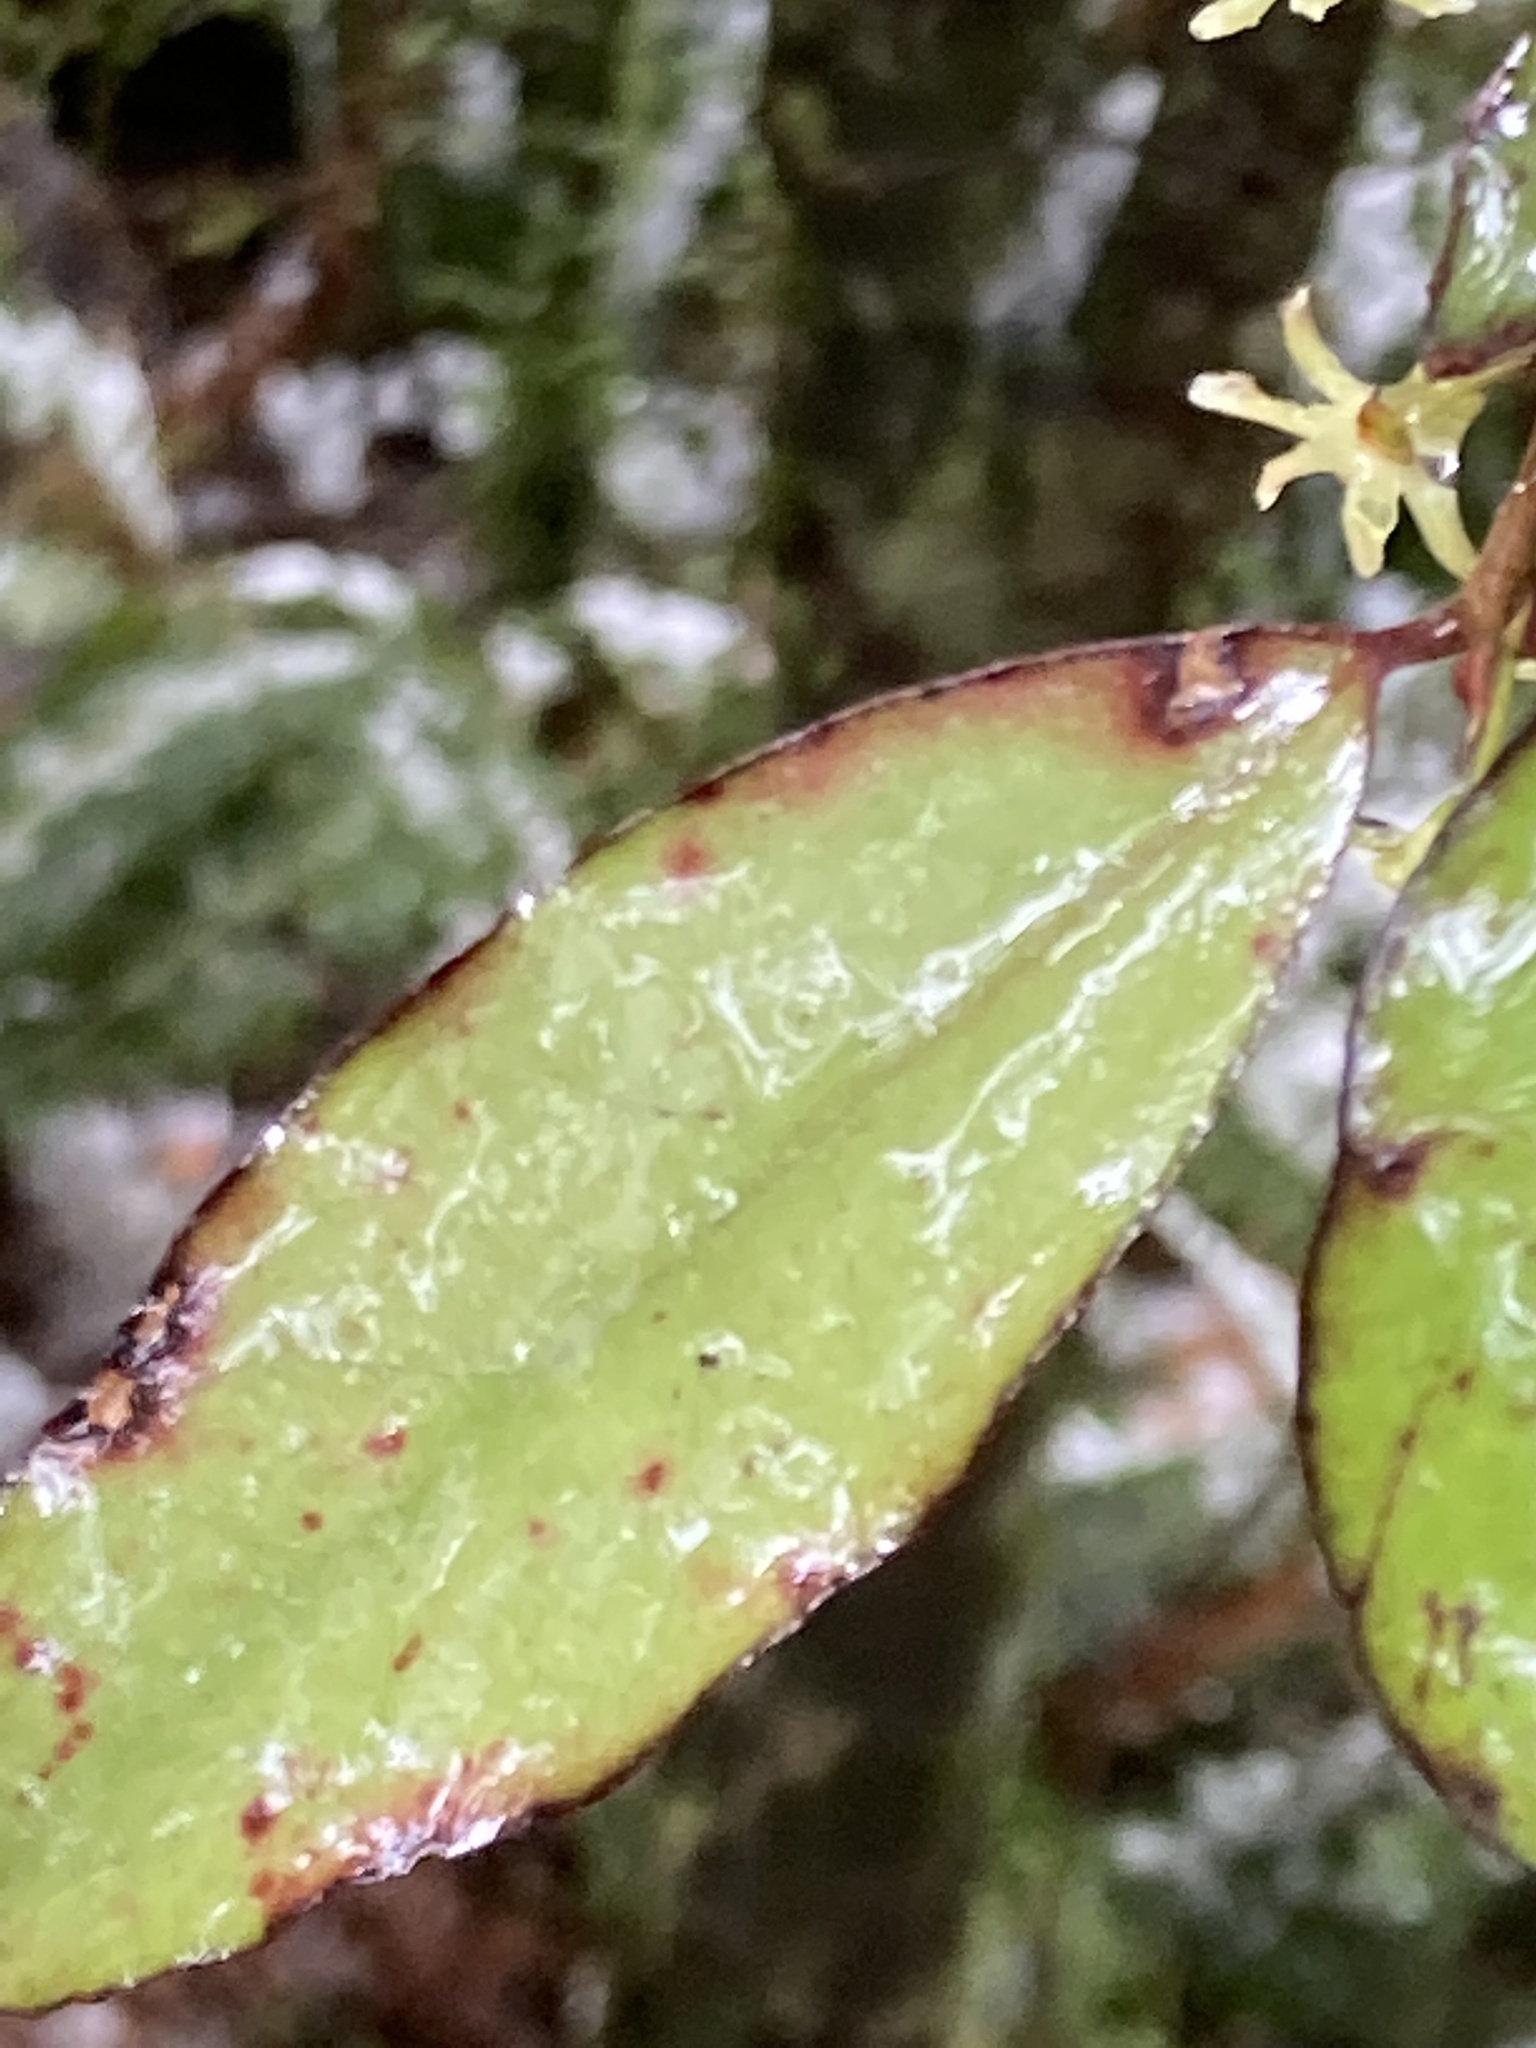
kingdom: Plantae
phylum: Tracheophyta
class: Magnoliopsida
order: Canellales
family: Winteraceae
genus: Pseudowintera
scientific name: Pseudowintera colorata
